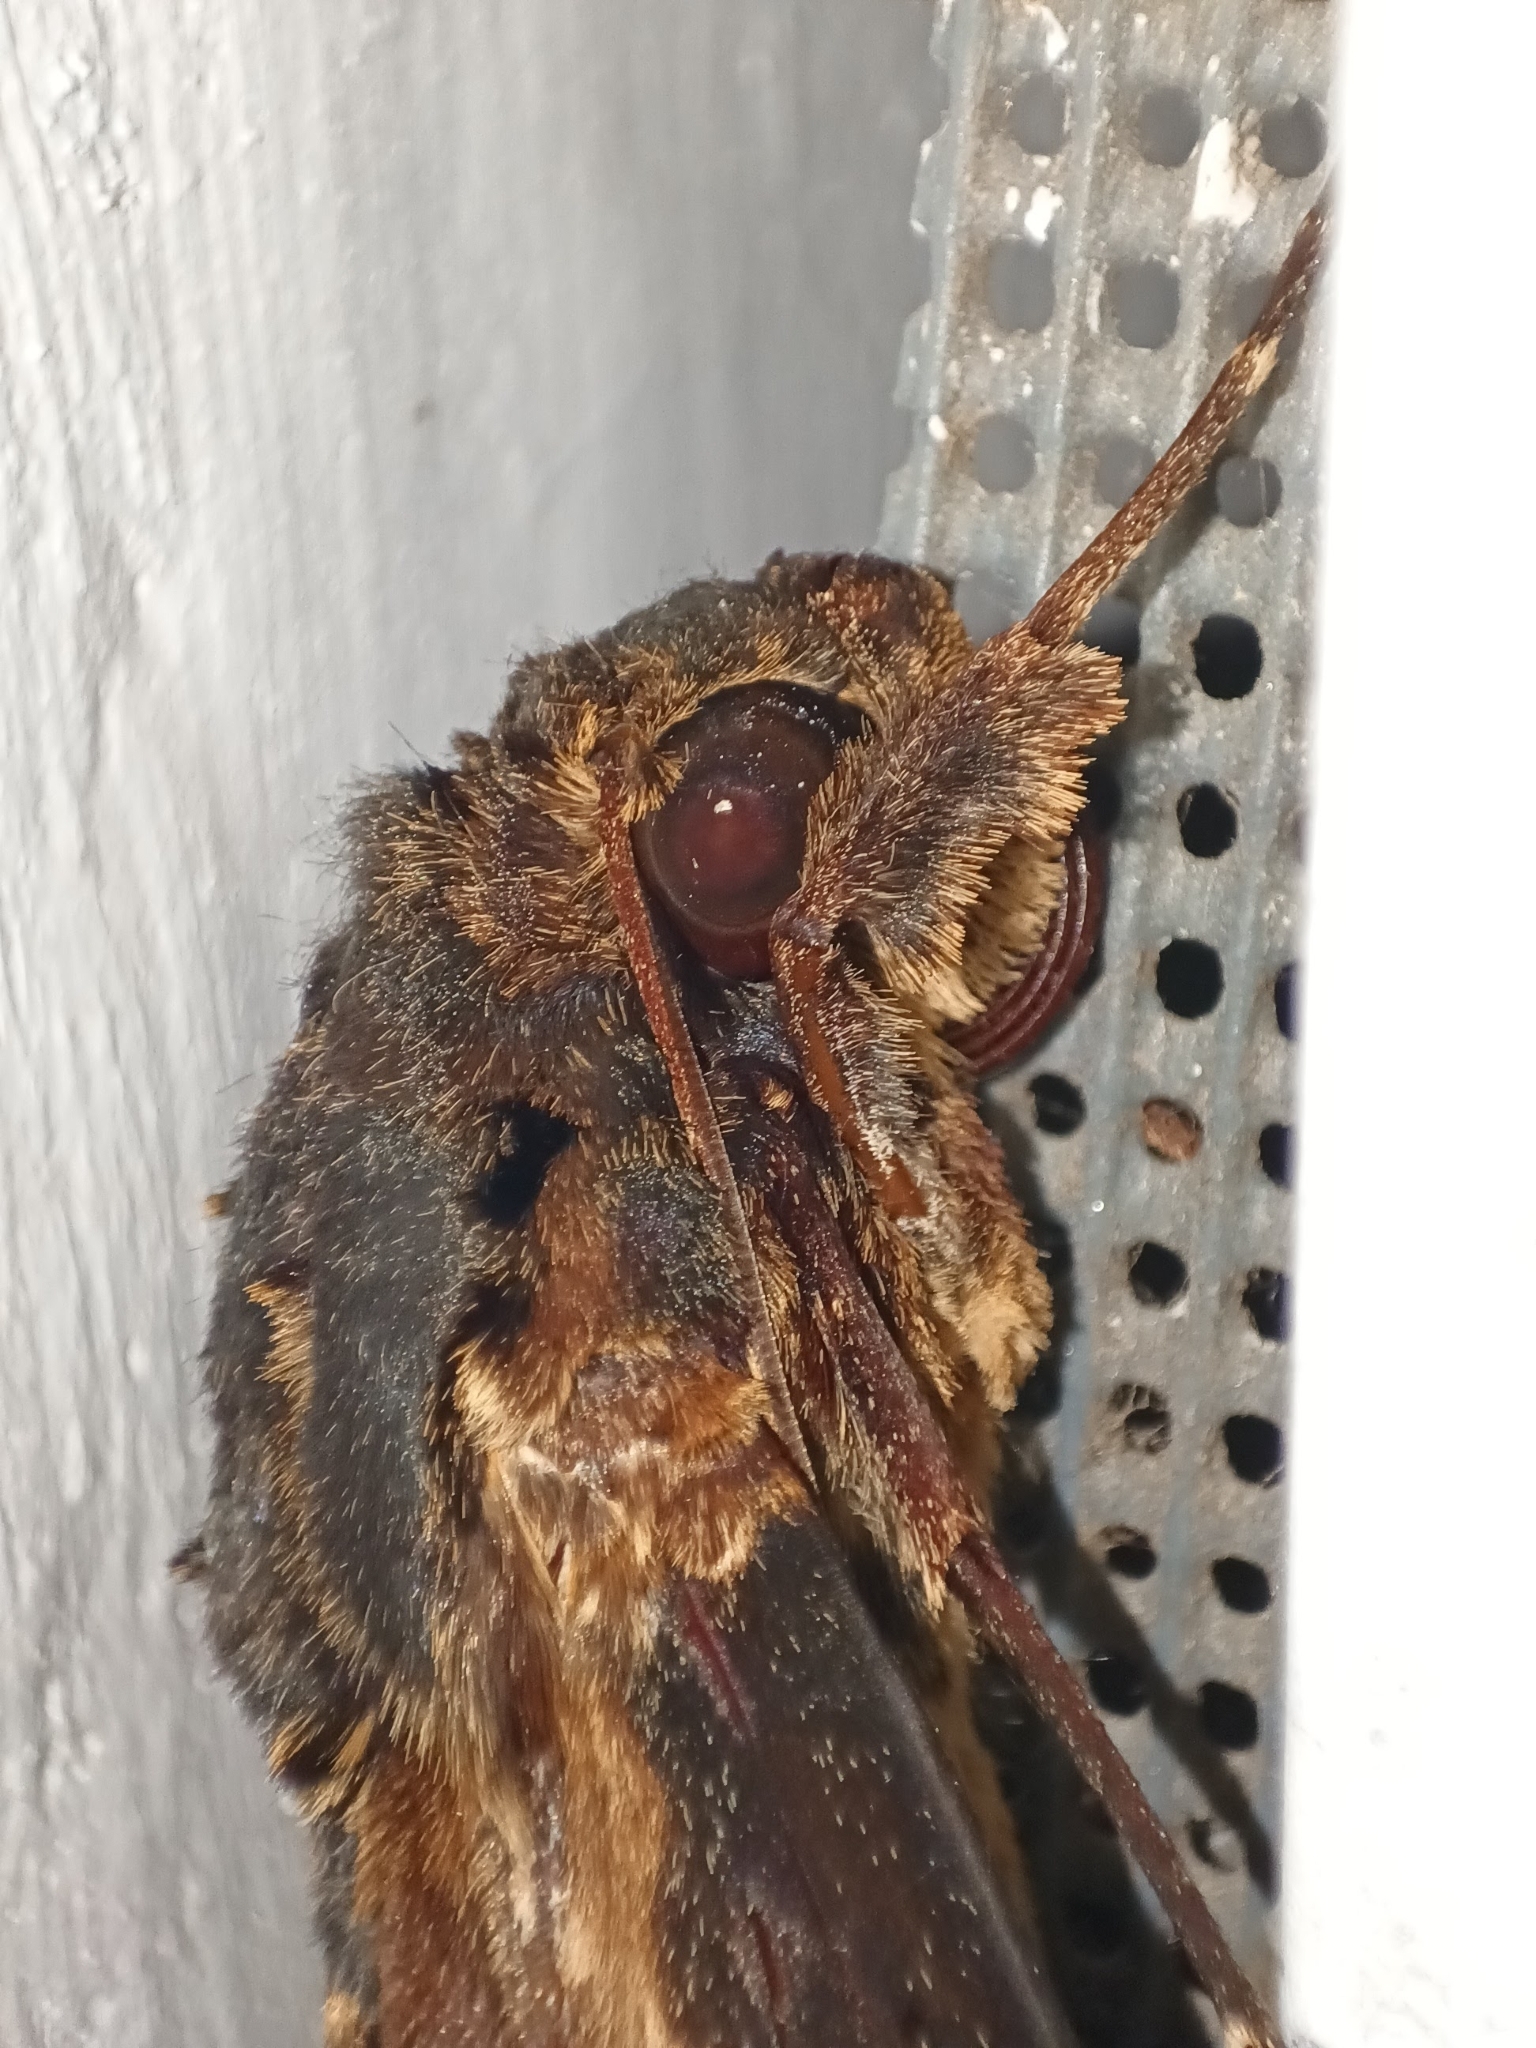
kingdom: Animalia
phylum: Arthropoda
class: Insecta
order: Lepidoptera
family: Sphingidae
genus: Neococytius
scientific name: Neococytius cluentius
